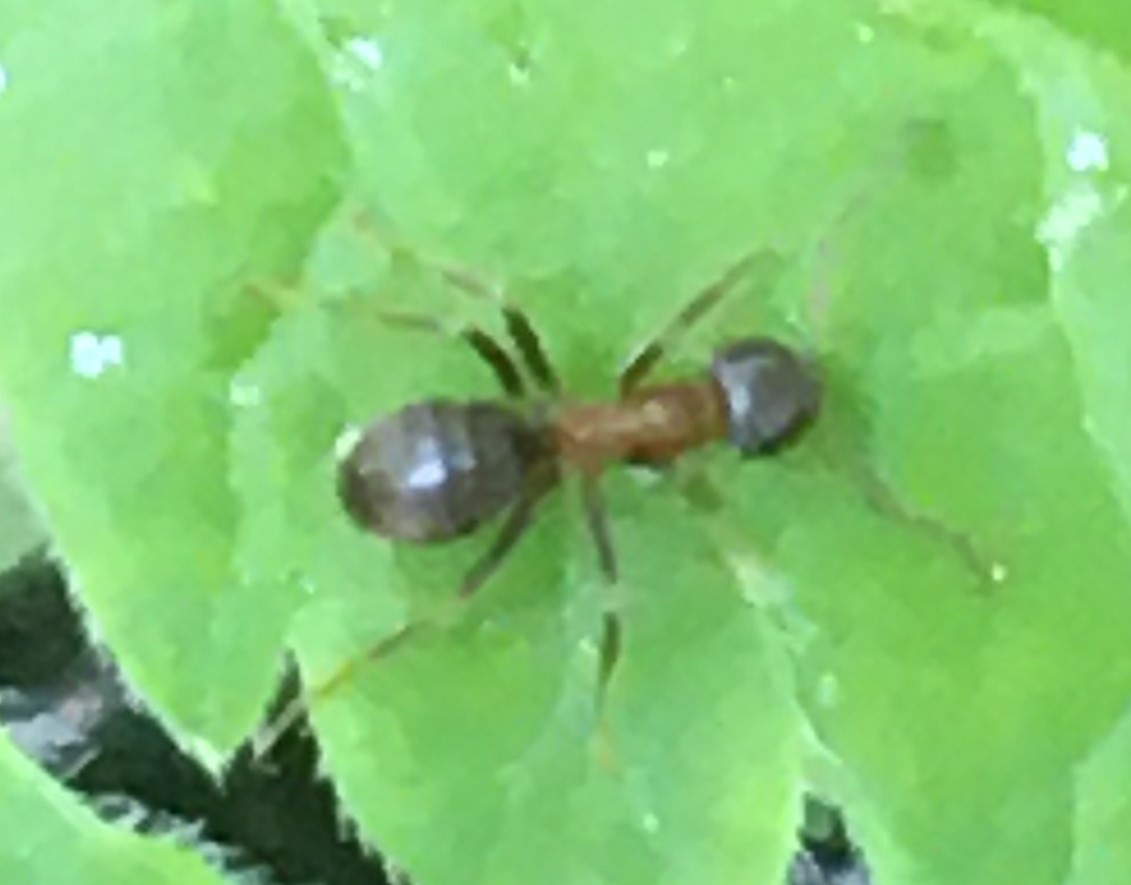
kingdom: Animalia
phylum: Arthropoda
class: Insecta
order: Hymenoptera
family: Formicidae
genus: Lasius
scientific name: Lasius emarginatus
